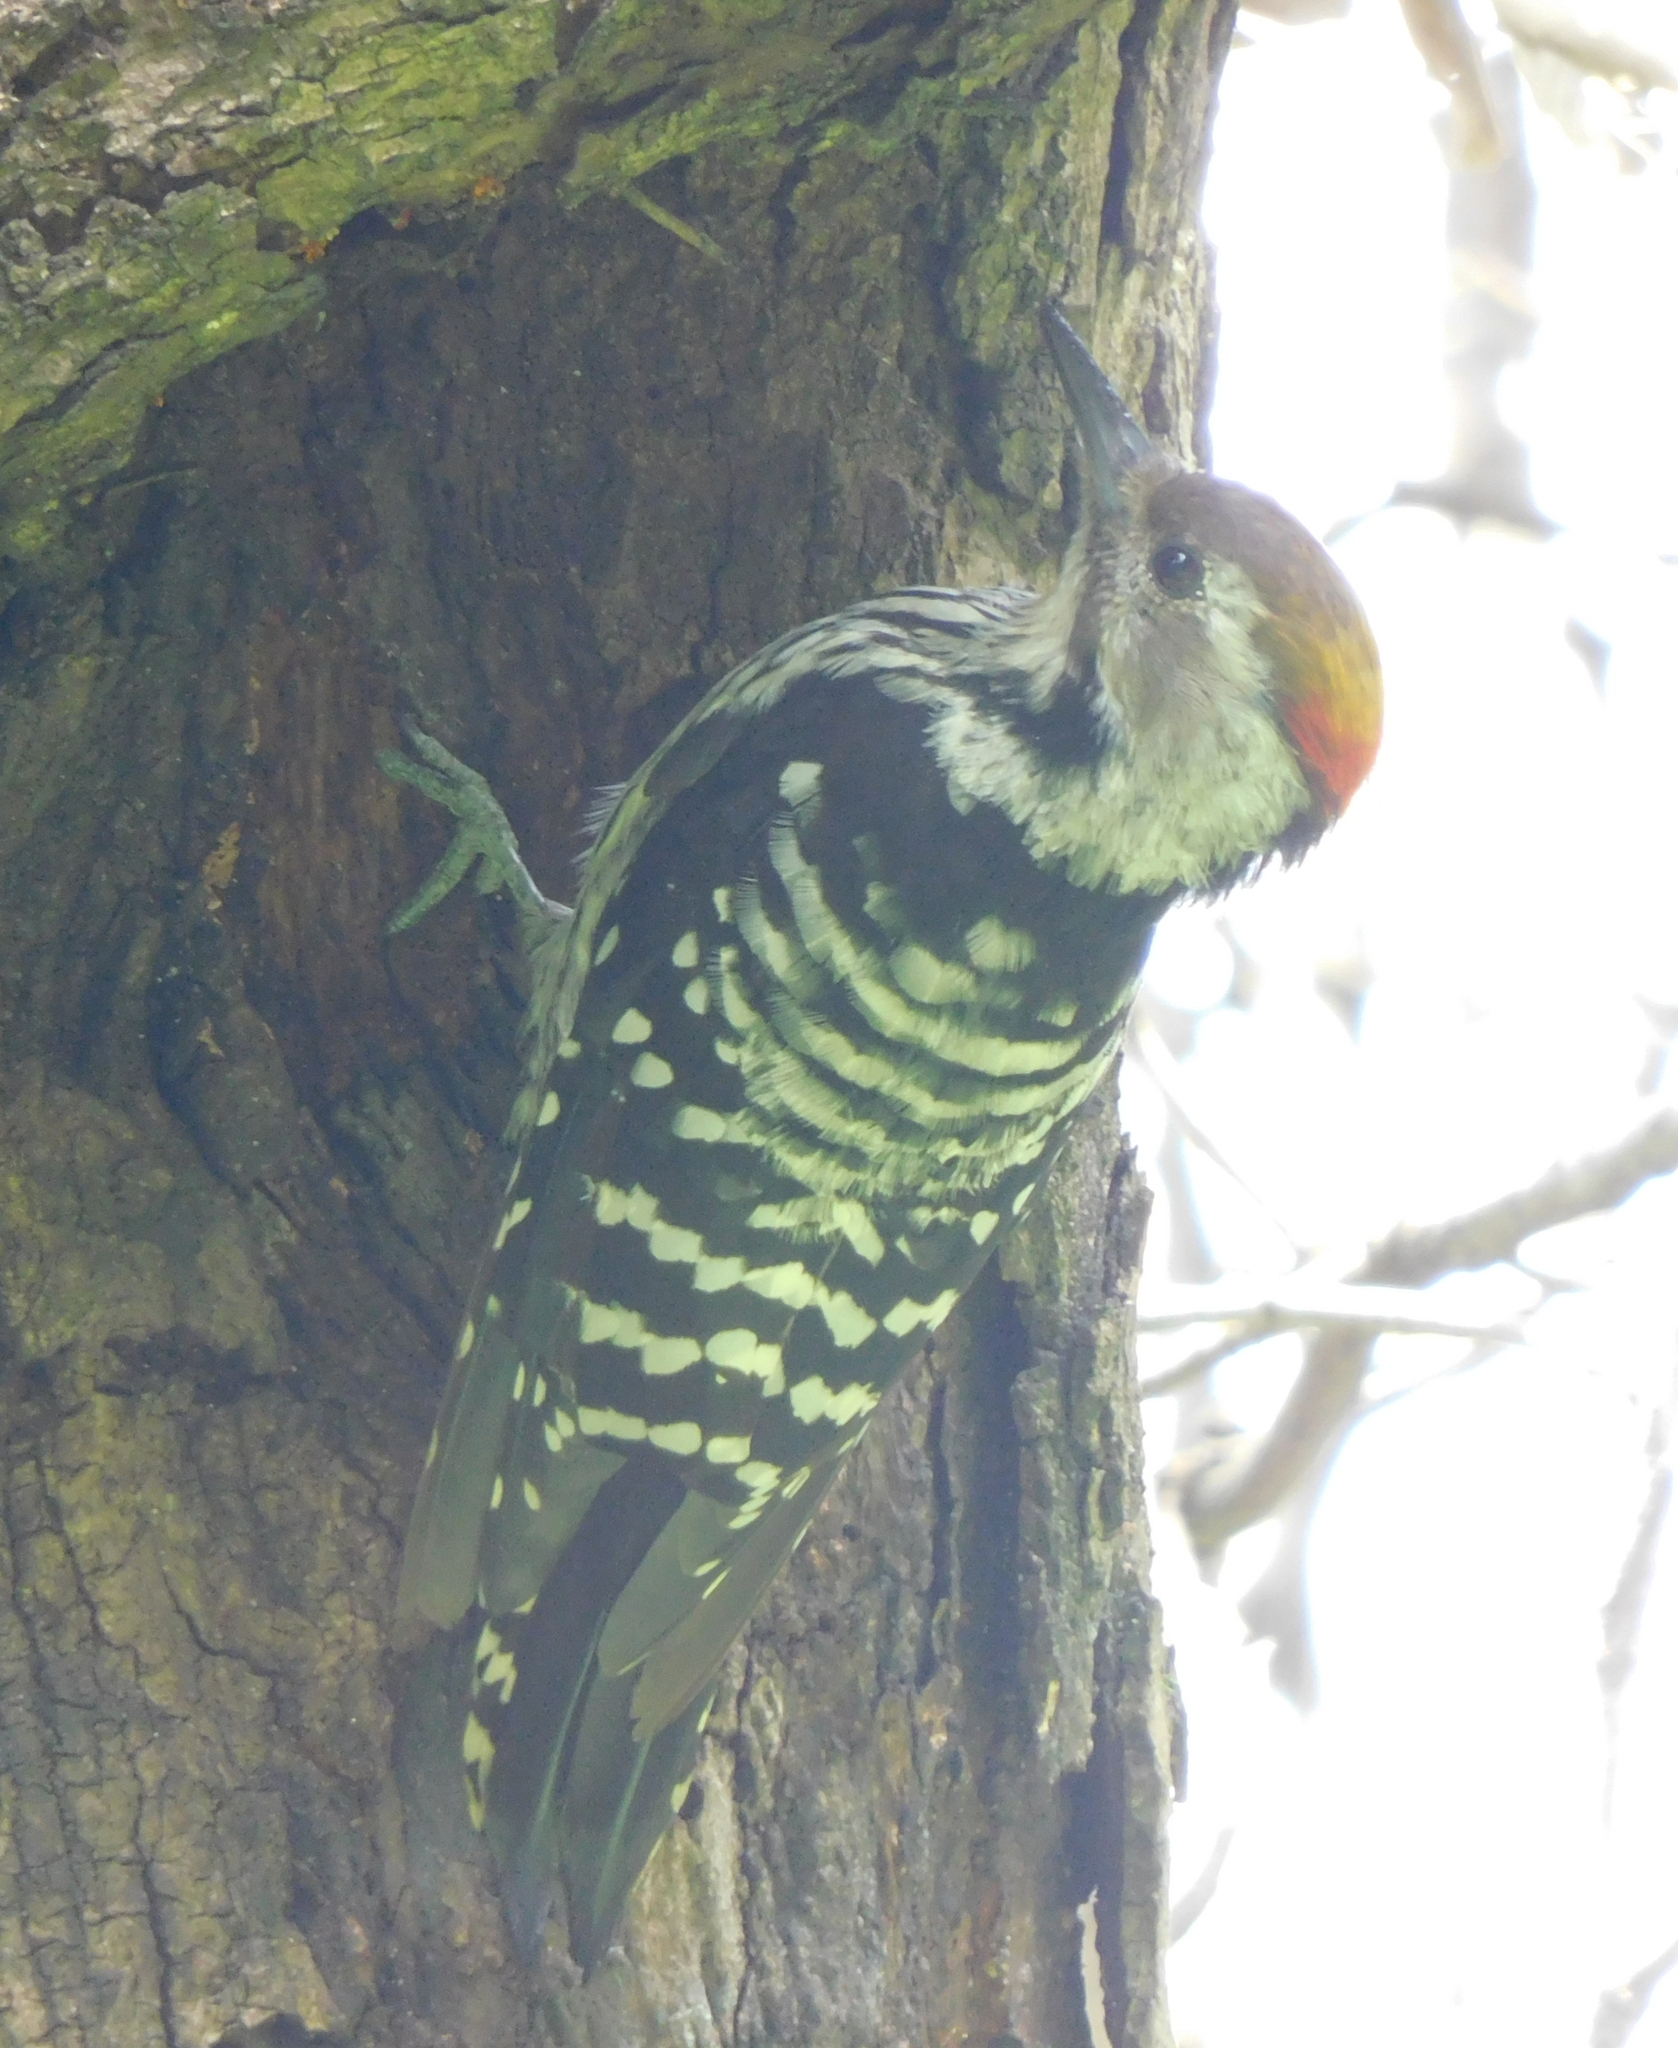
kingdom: Animalia
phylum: Chordata
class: Aves
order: Piciformes
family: Picidae
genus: Dendrocoptes
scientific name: Dendrocoptes auriceps
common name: Brown-fronted woodpecker
